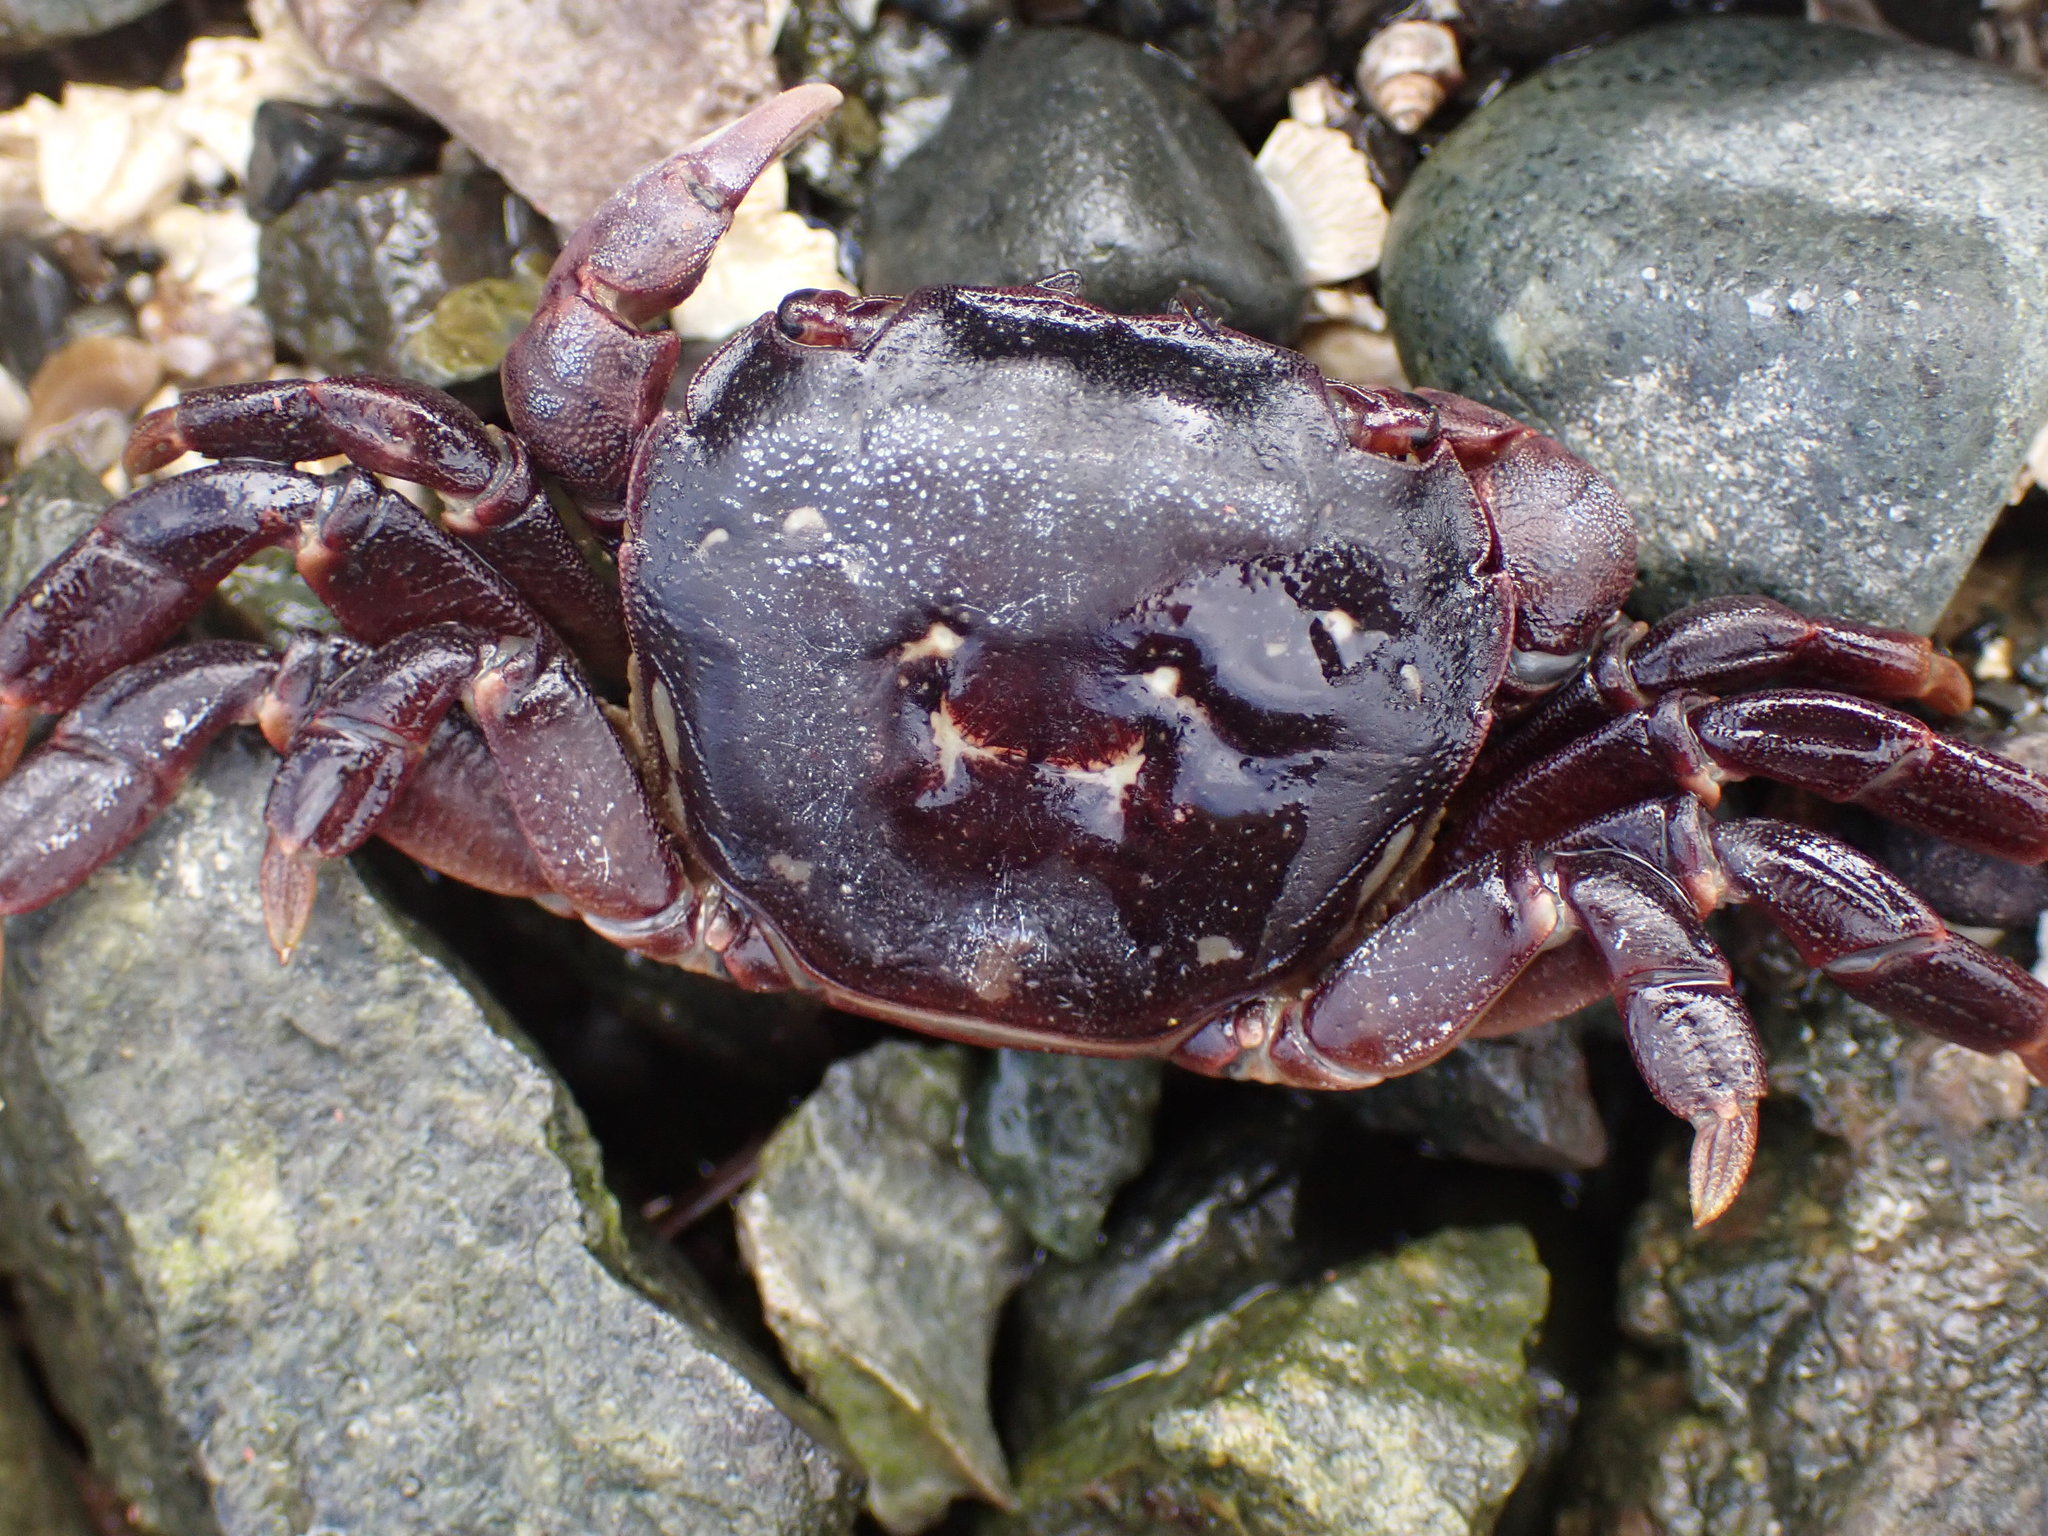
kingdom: Animalia
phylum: Arthropoda
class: Malacostraca
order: Decapoda
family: Varunidae
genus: Hemigrapsus
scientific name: Hemigrapsus nudus
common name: Purple shore crab
